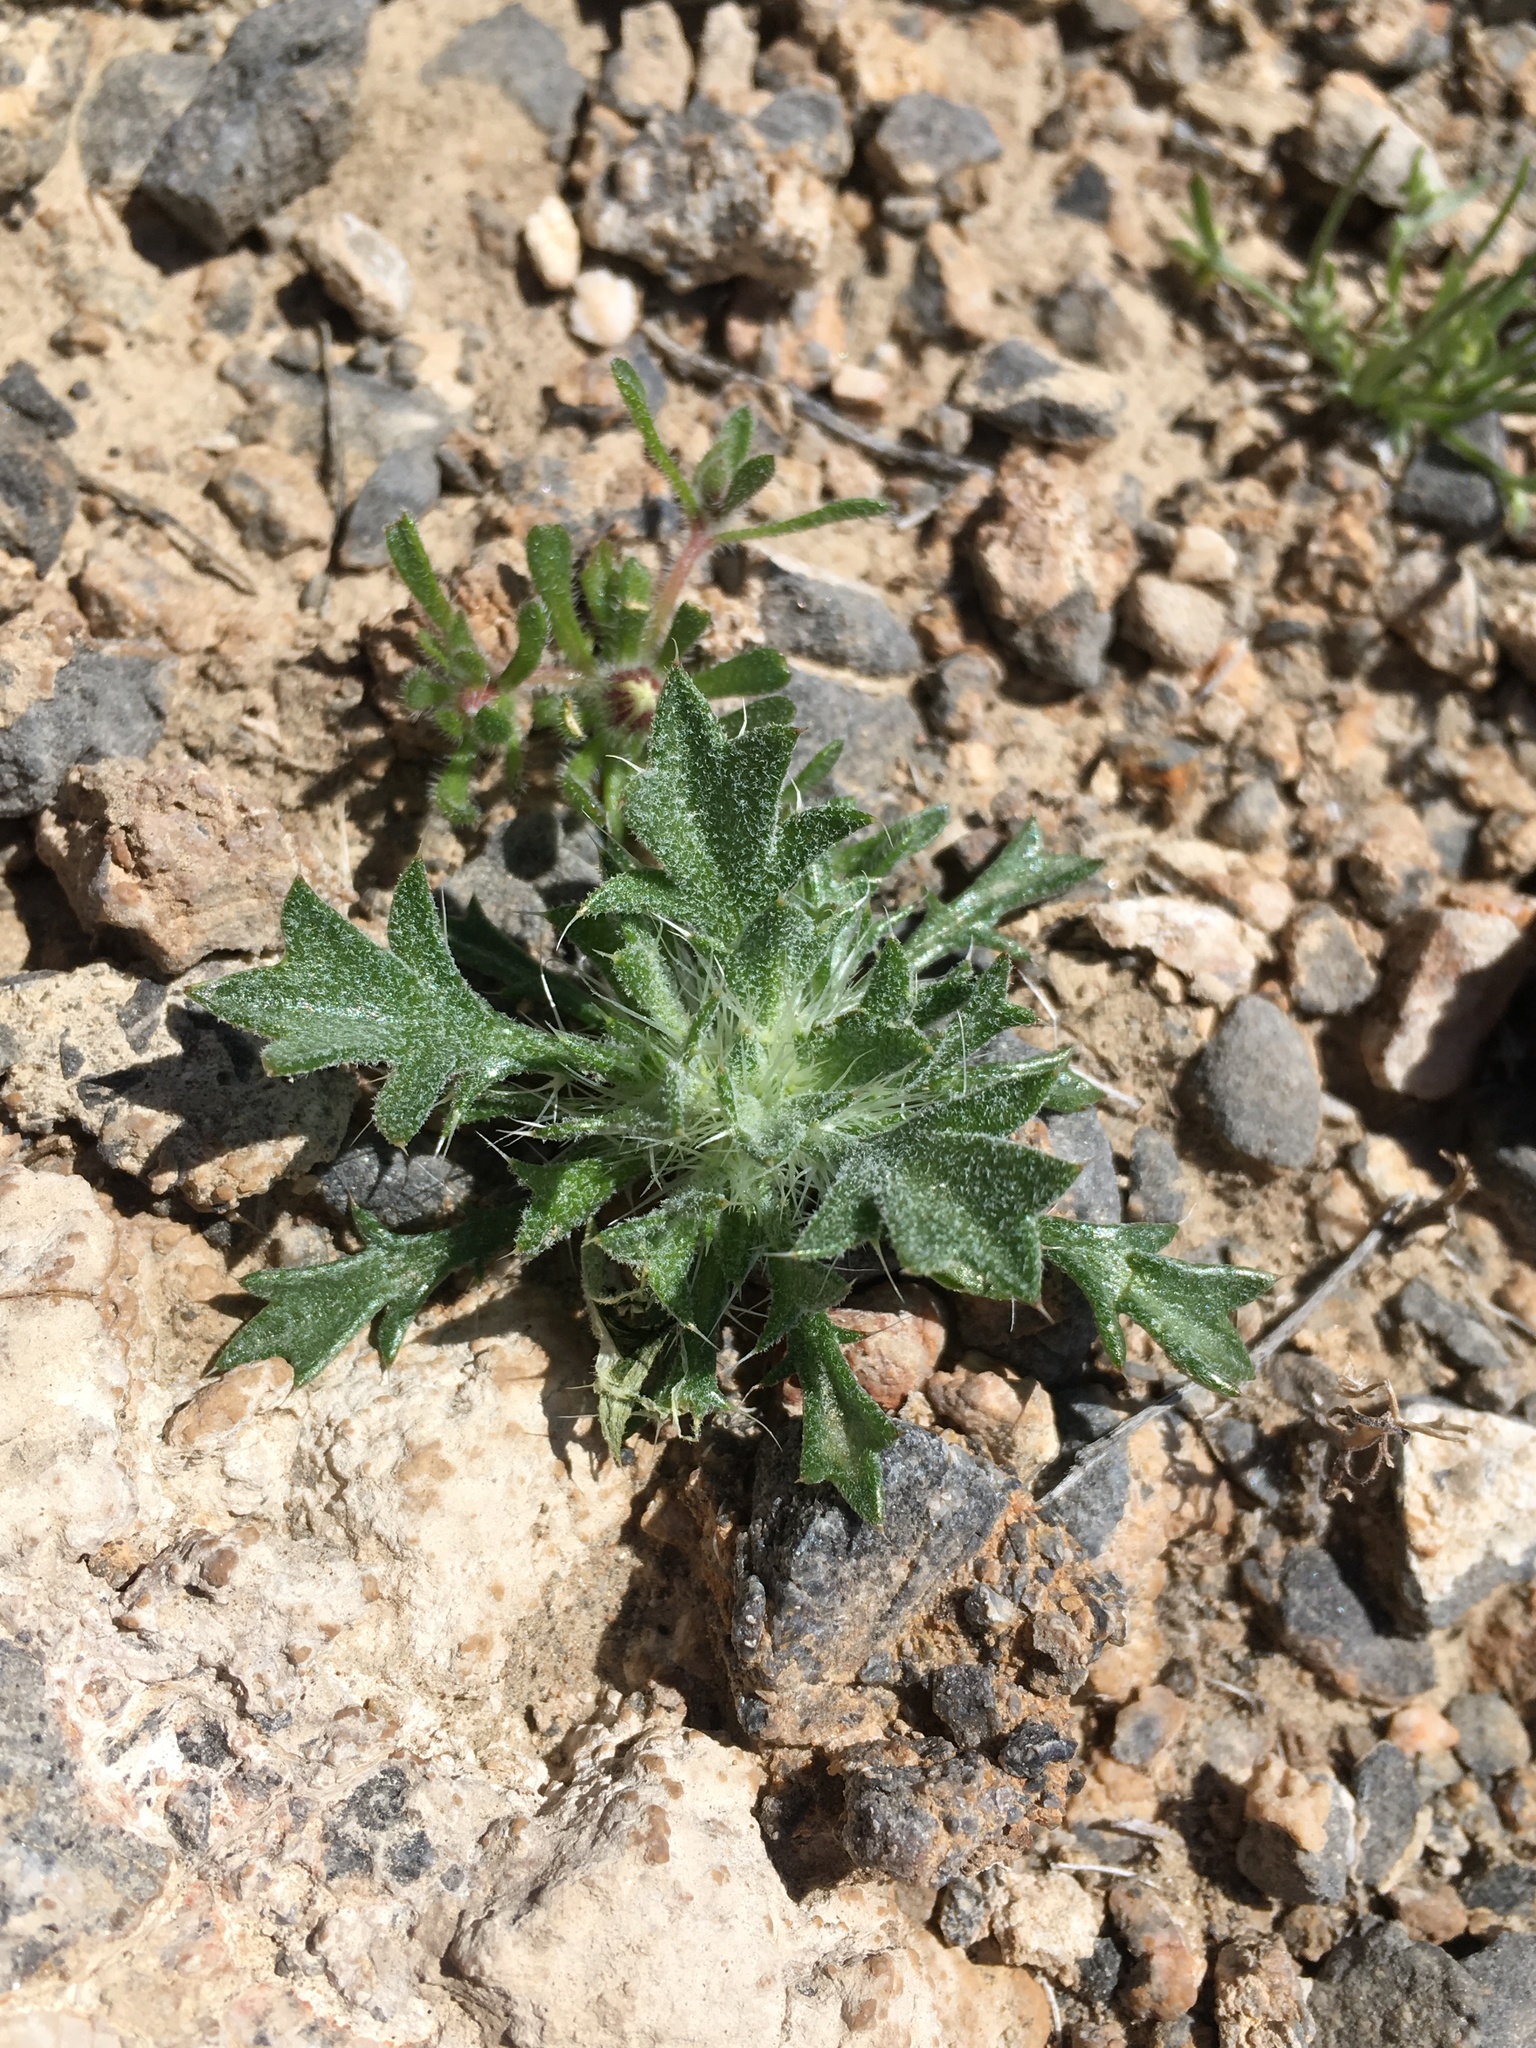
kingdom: Plantae
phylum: Tracheophyta
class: Magnoliopsida
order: Ericales
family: Polemoniaceae
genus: Langloisia
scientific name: Langloisia setosissima
